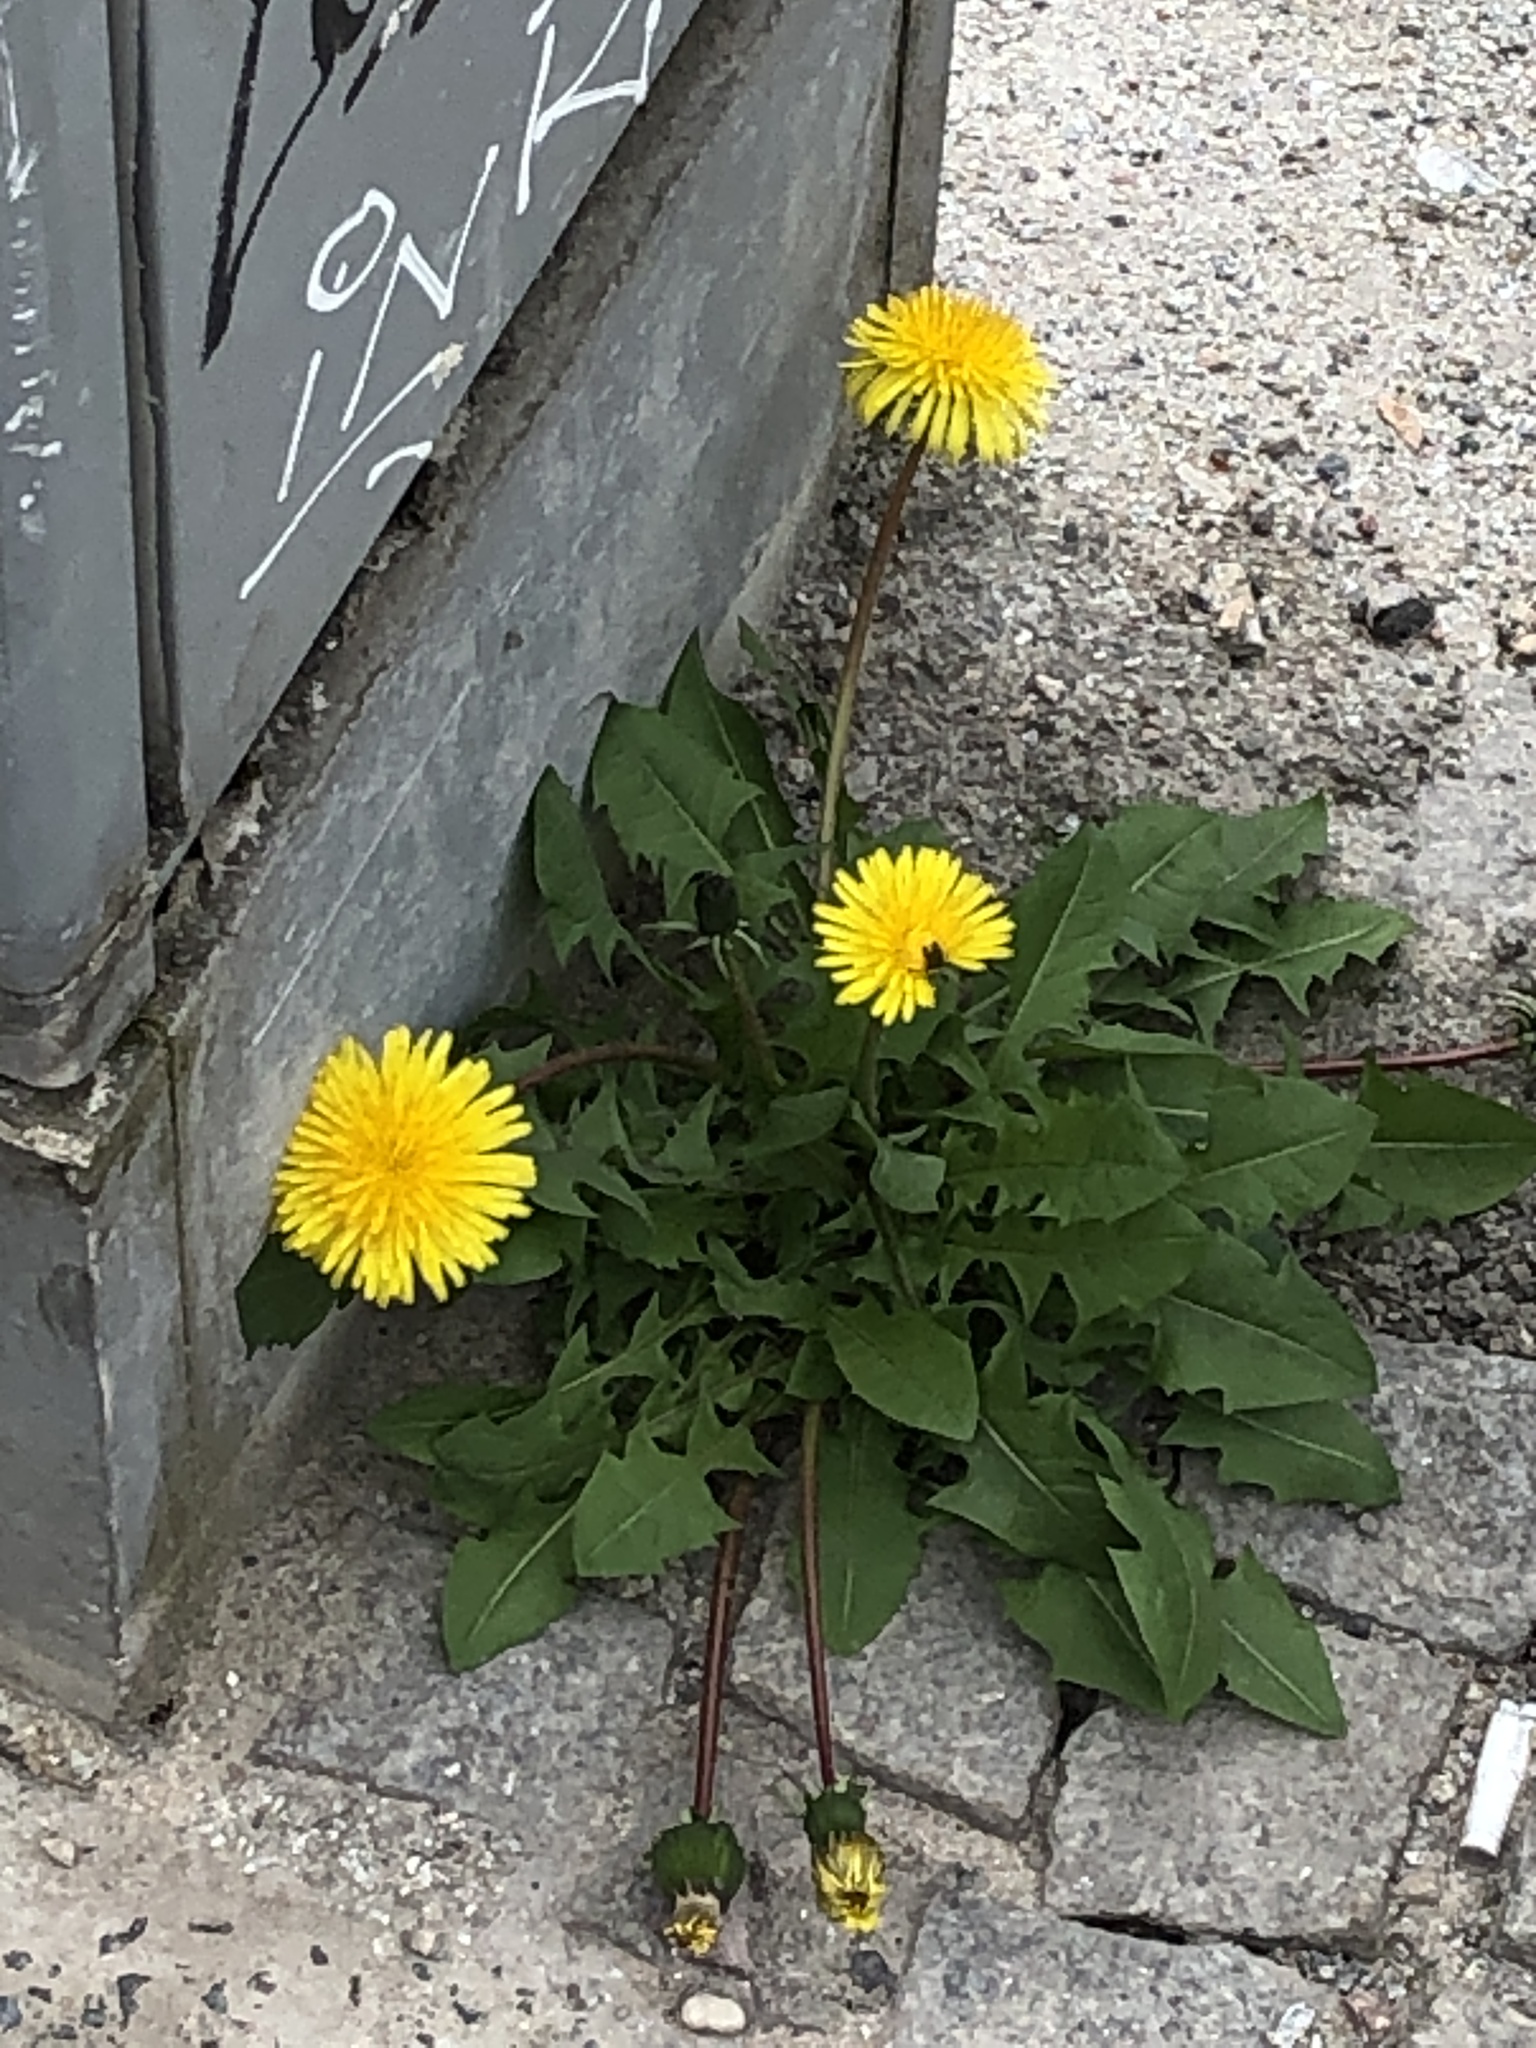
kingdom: Plantae
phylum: Tracheophyta
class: Magnoliopsida
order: Asterales
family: Asteraceae
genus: Taraxacum
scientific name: Taraxacum officinale
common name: Common dandelion
